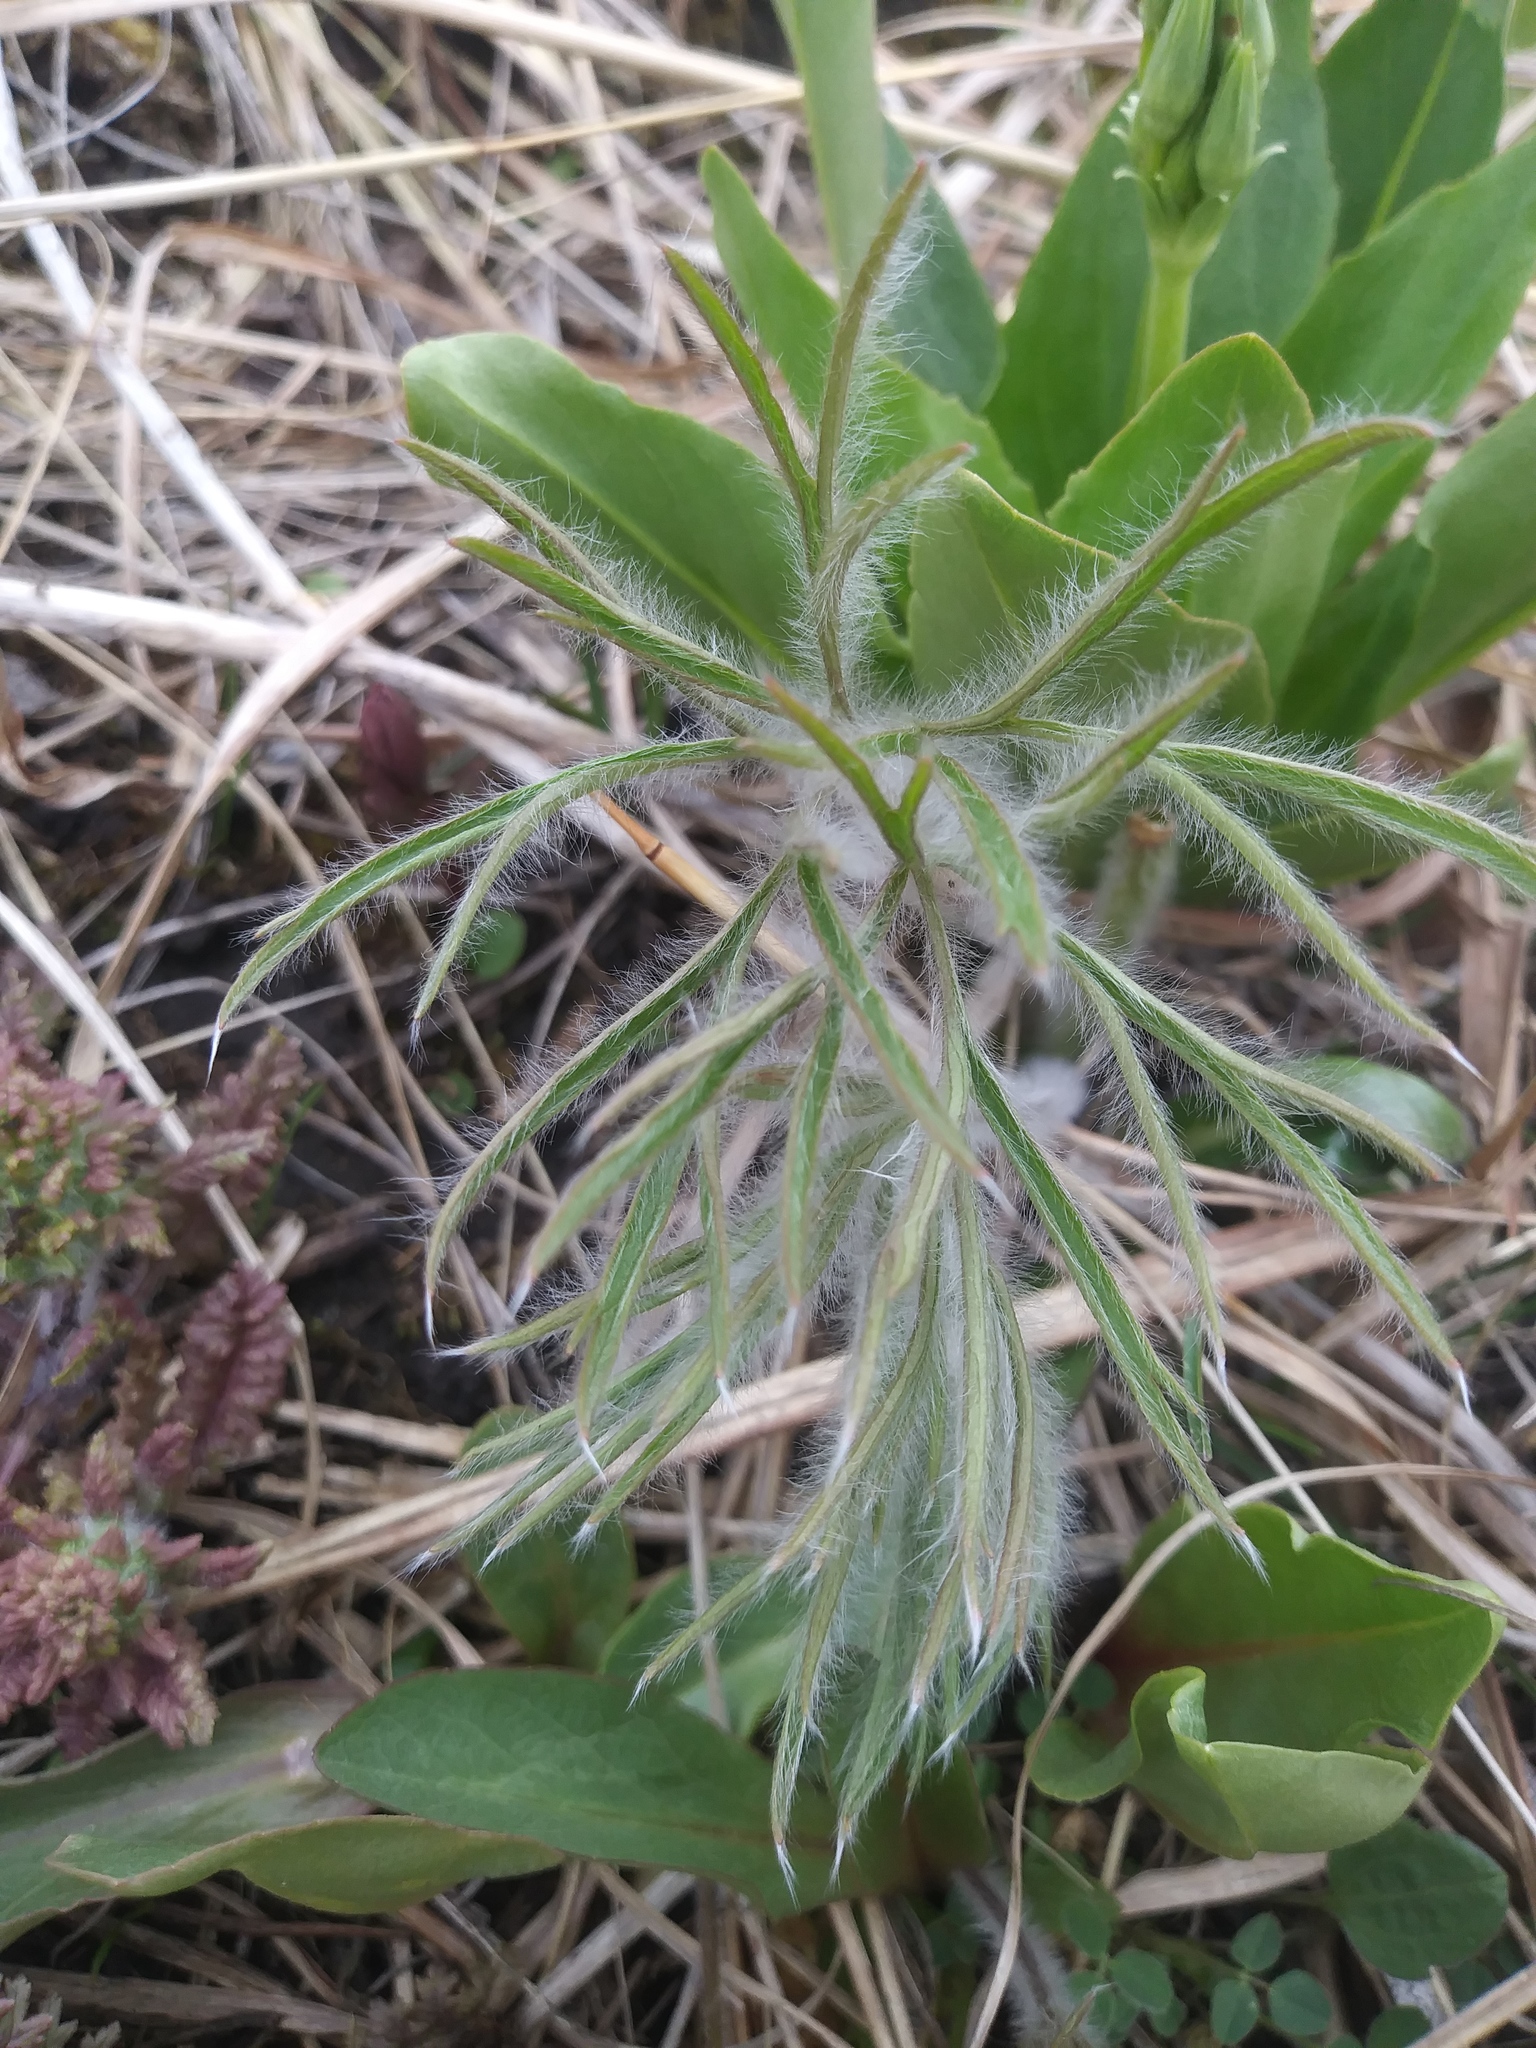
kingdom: Plantae
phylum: Tracheophyta
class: Magnoliopsida
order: Ericales
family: Primulaceae
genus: Dodecatheon
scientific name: Dodecatheon meadia
